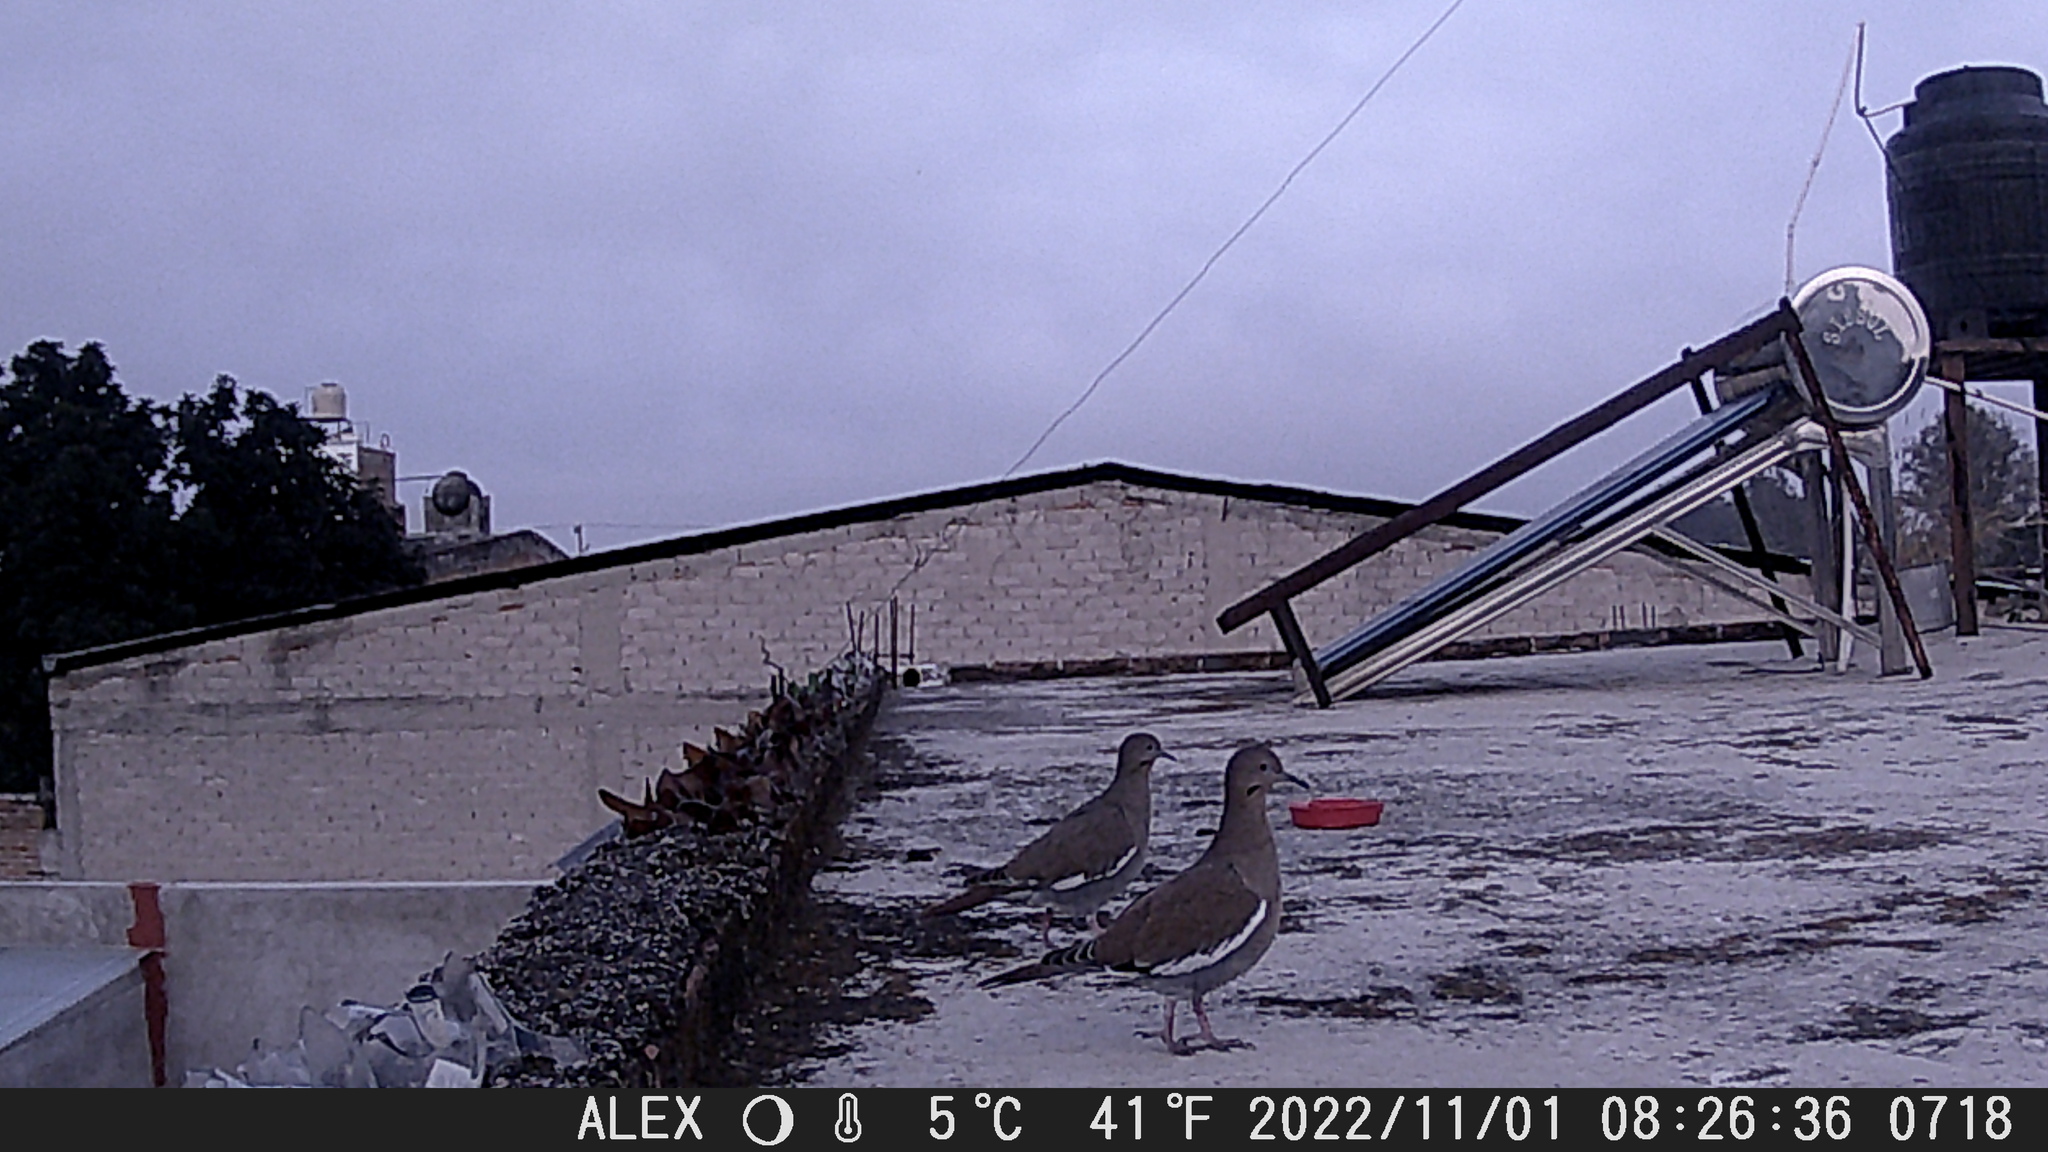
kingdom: Animalia
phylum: Chordata
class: Aves
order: Columbiformes
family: Columbidae
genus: Zenaida
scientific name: Zenaida asiatica
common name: White-winged dove
